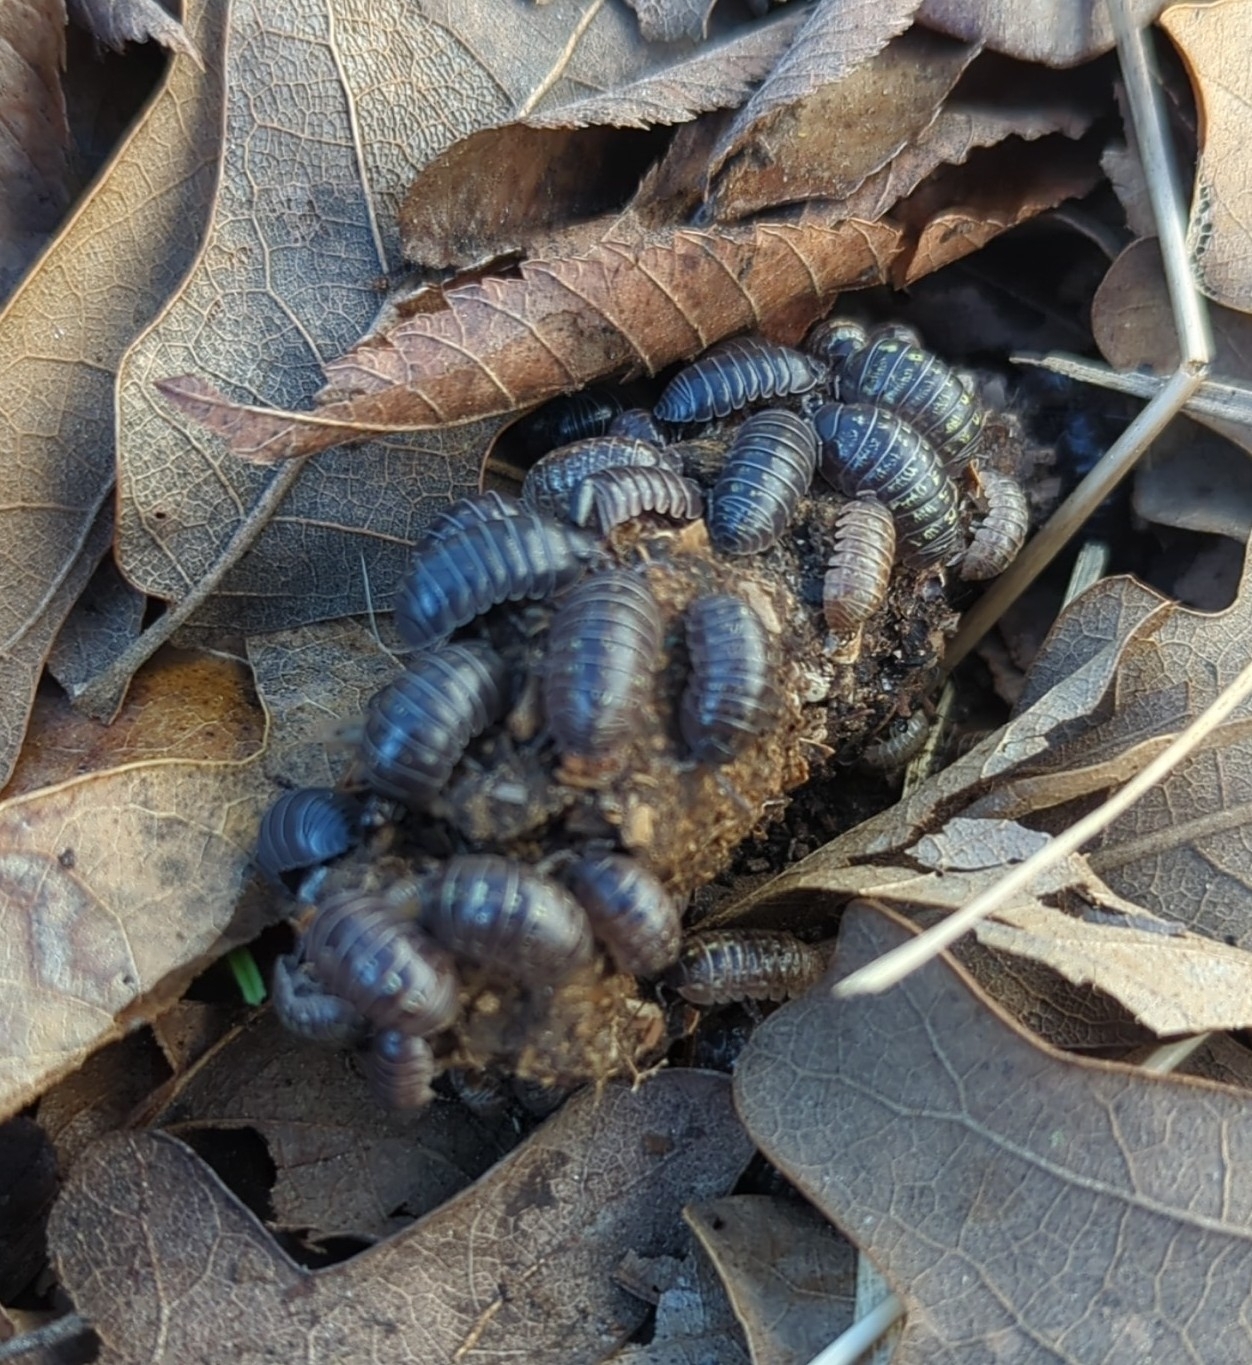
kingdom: Animalia
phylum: Arthropoda
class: Malacostraca
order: Isopoda
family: Armadillidiidae
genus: Armadillidium
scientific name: Armadillidium vulgare
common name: Common pill woodlouse
